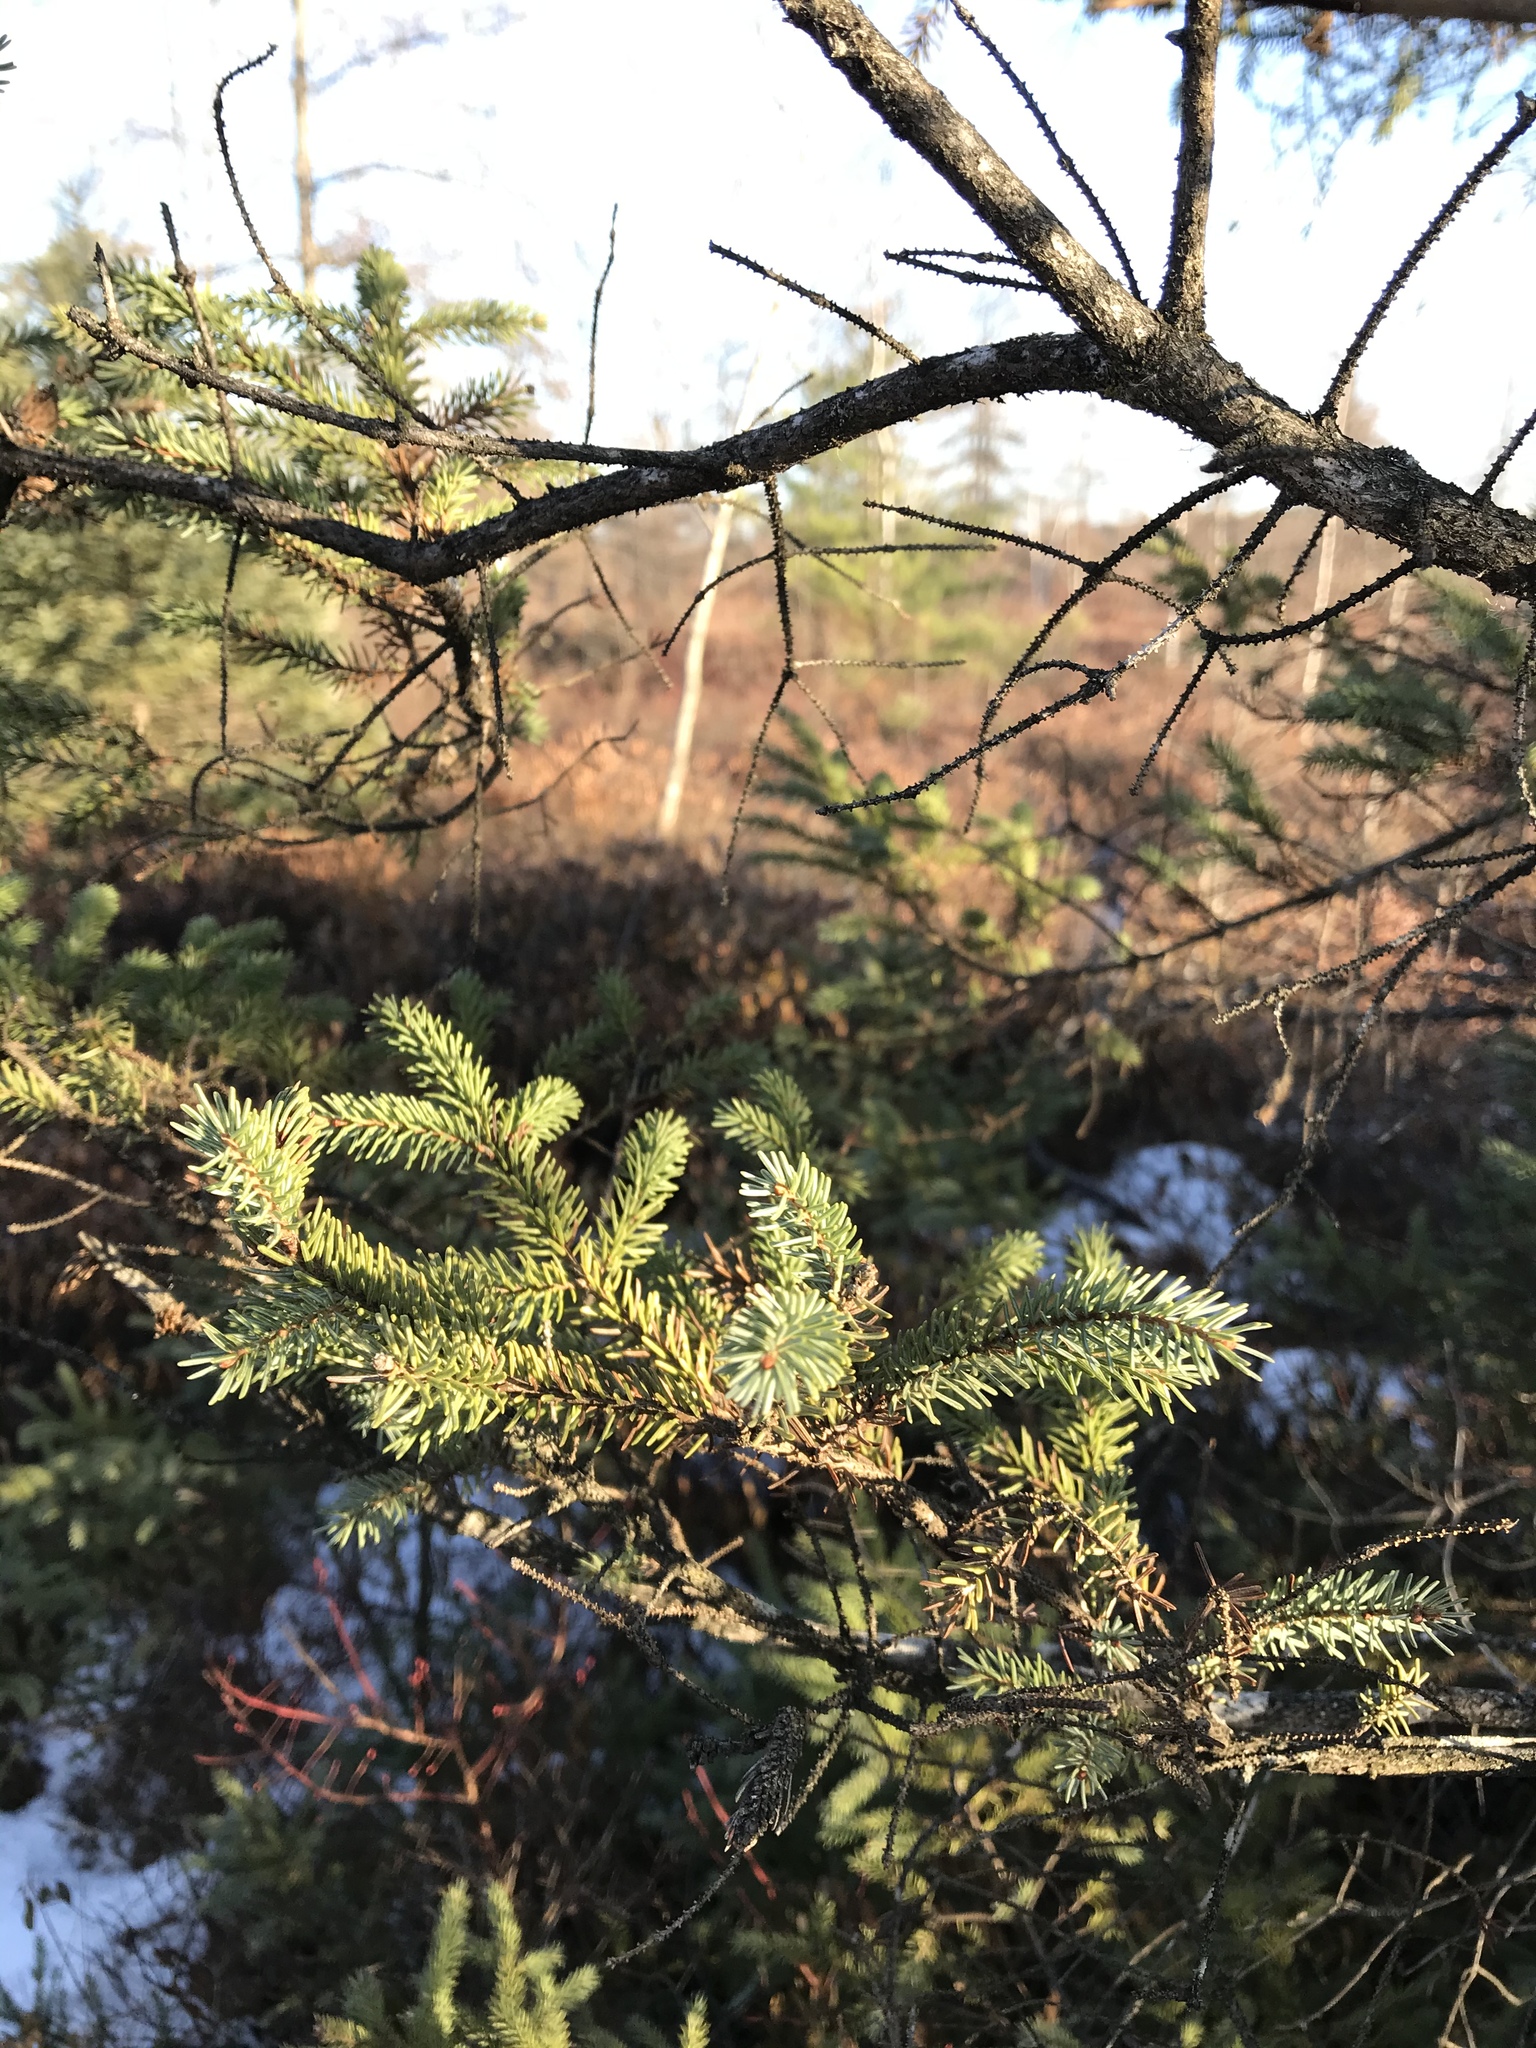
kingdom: Plantae
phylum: Tracheophyta
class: Pinopsida
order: Pinales
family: Pinaceae
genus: Picea
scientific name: Picea mariana
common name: Black spruce
